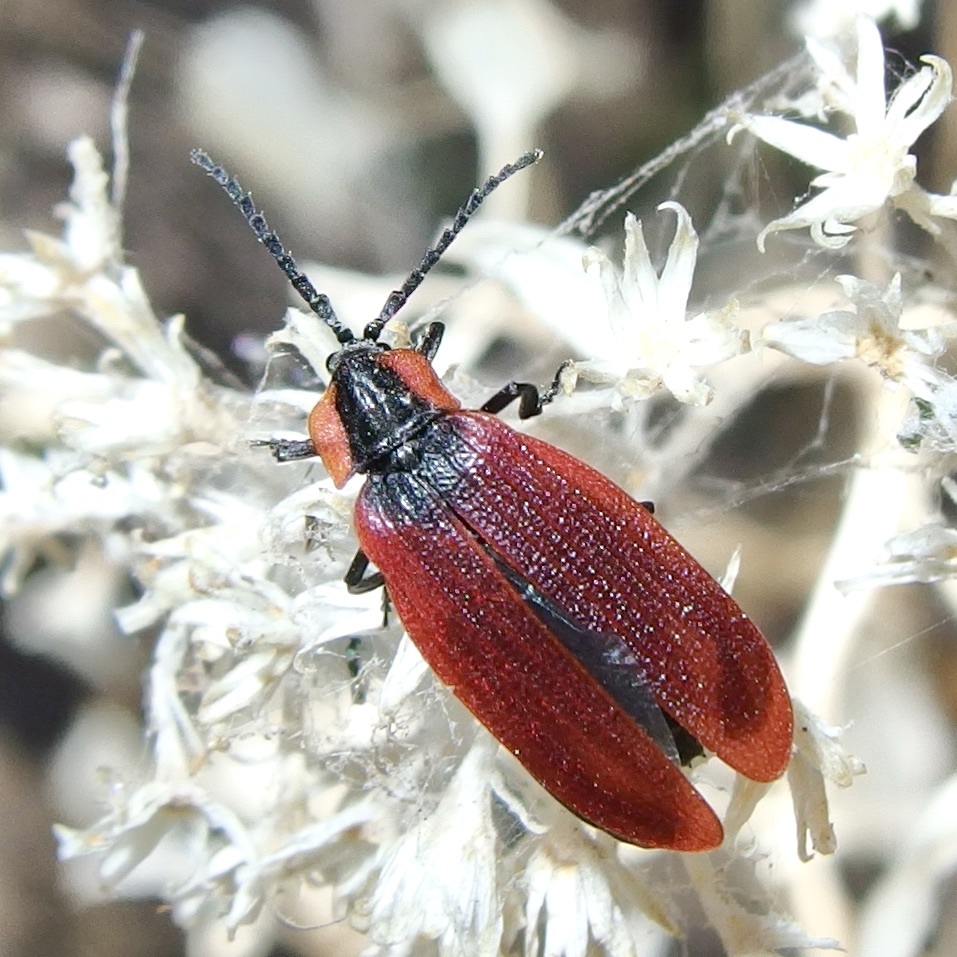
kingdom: Animalia
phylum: Arthropoda
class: Insecta
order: Coleoptera
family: Lycidae
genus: Lycus
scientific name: Lycus sanguinipennis
